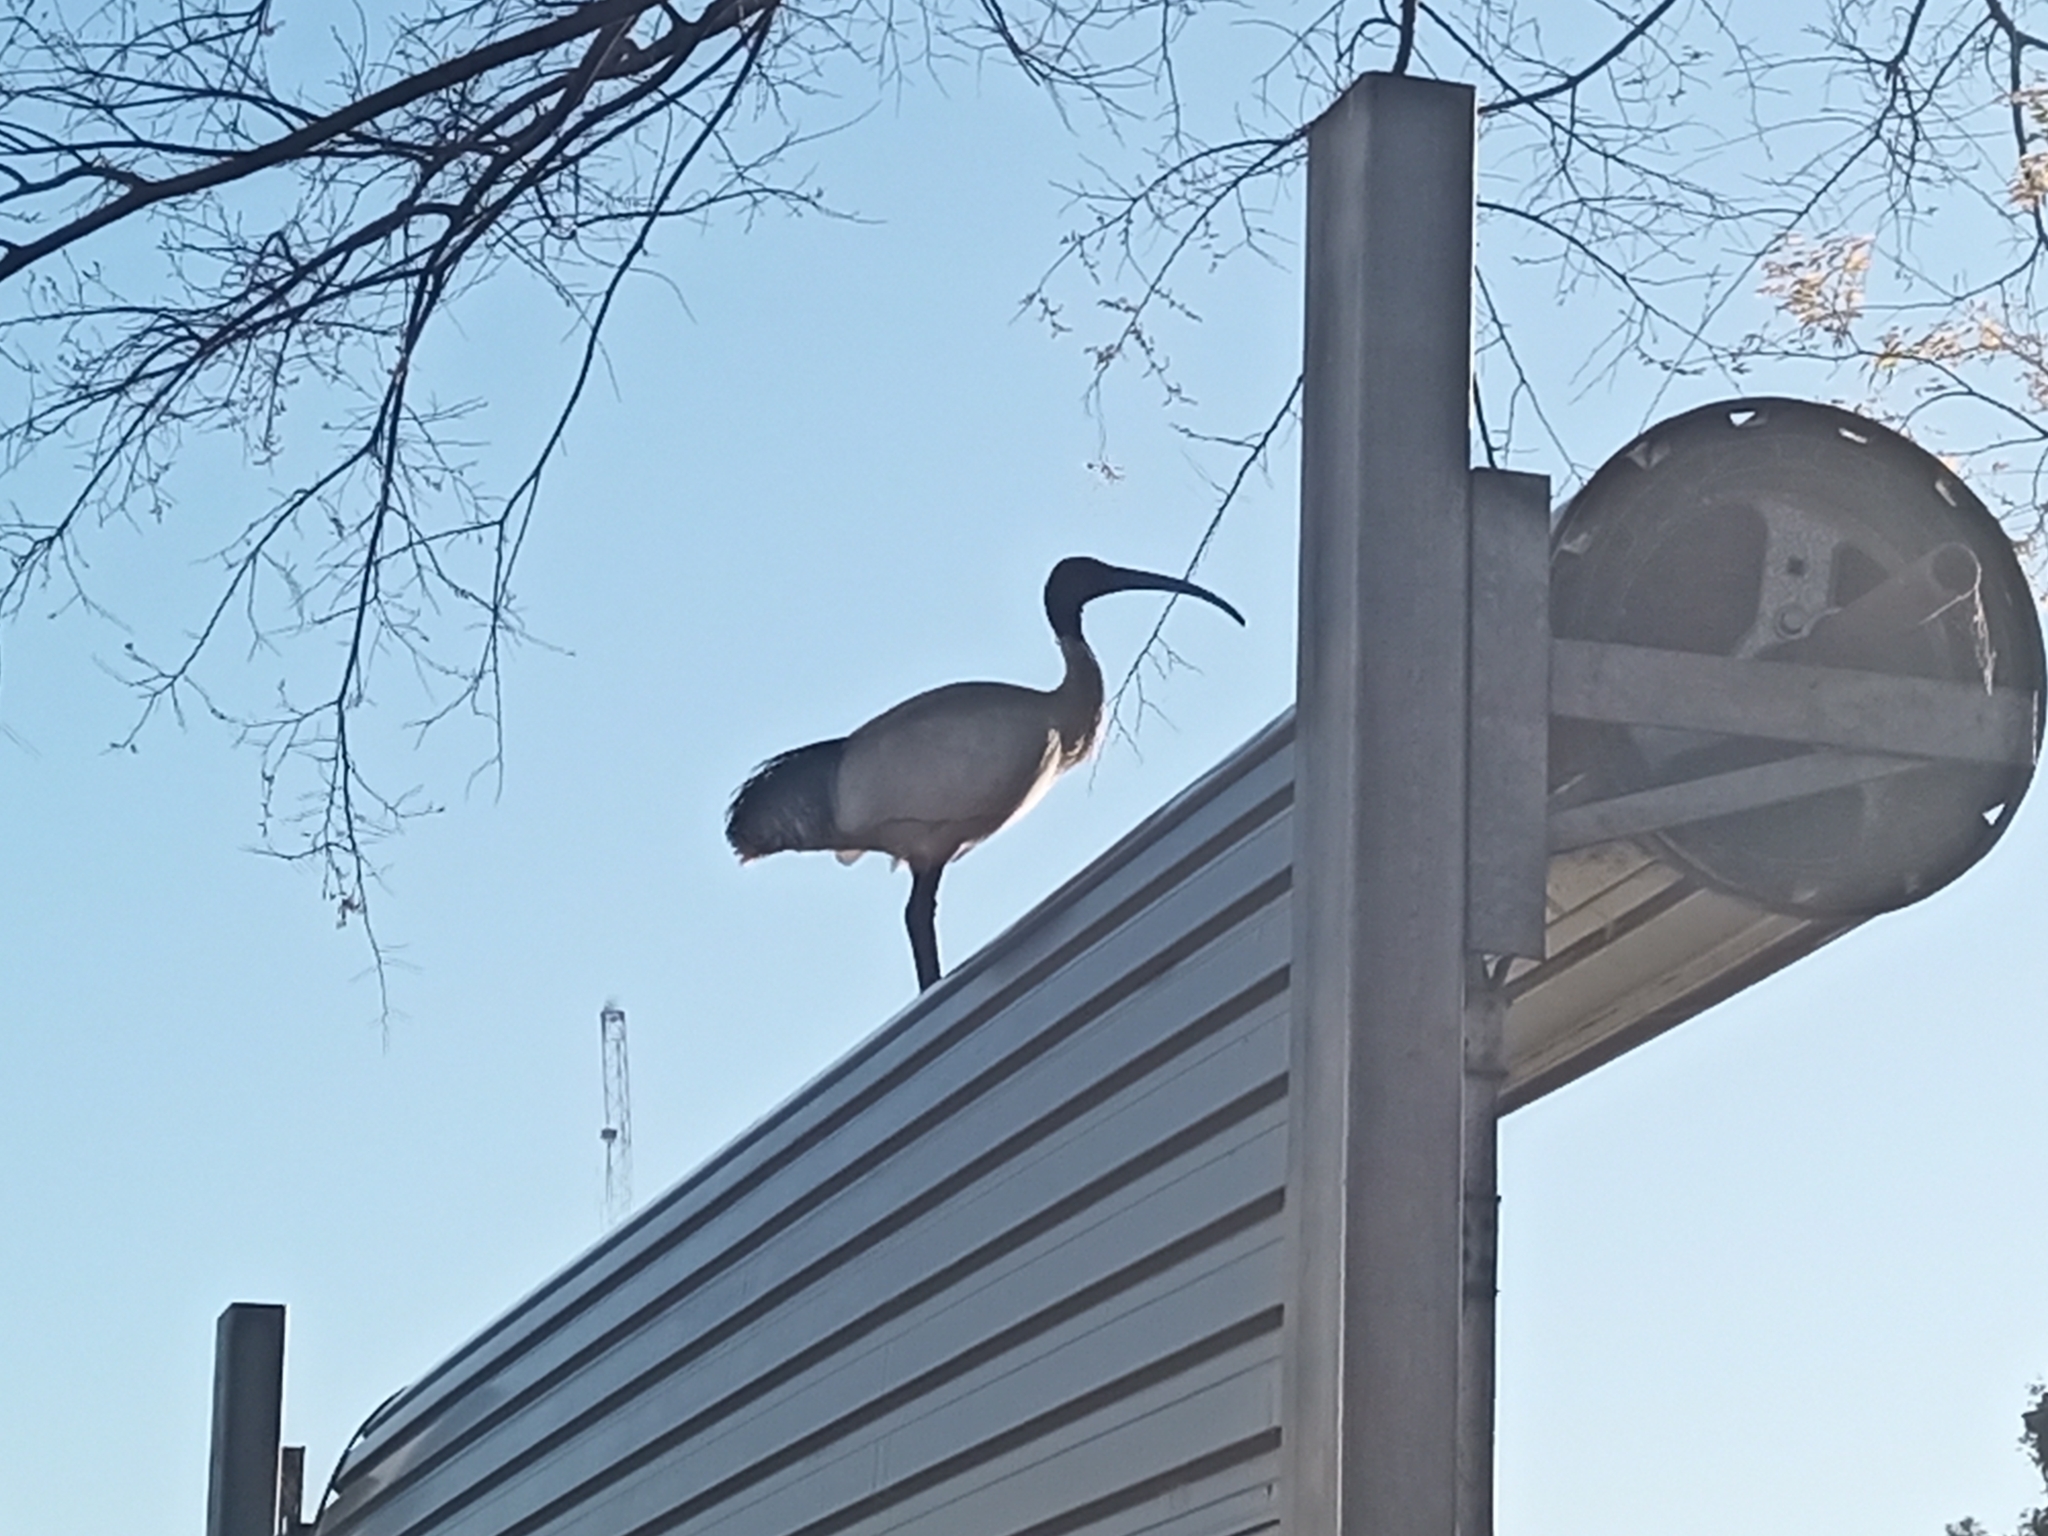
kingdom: Animalia
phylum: Chordata
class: Aves
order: Pelecaniformes
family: Threskiornithidae
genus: Threskiornis
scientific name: Threskiornis molucca
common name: Australian white ibis
